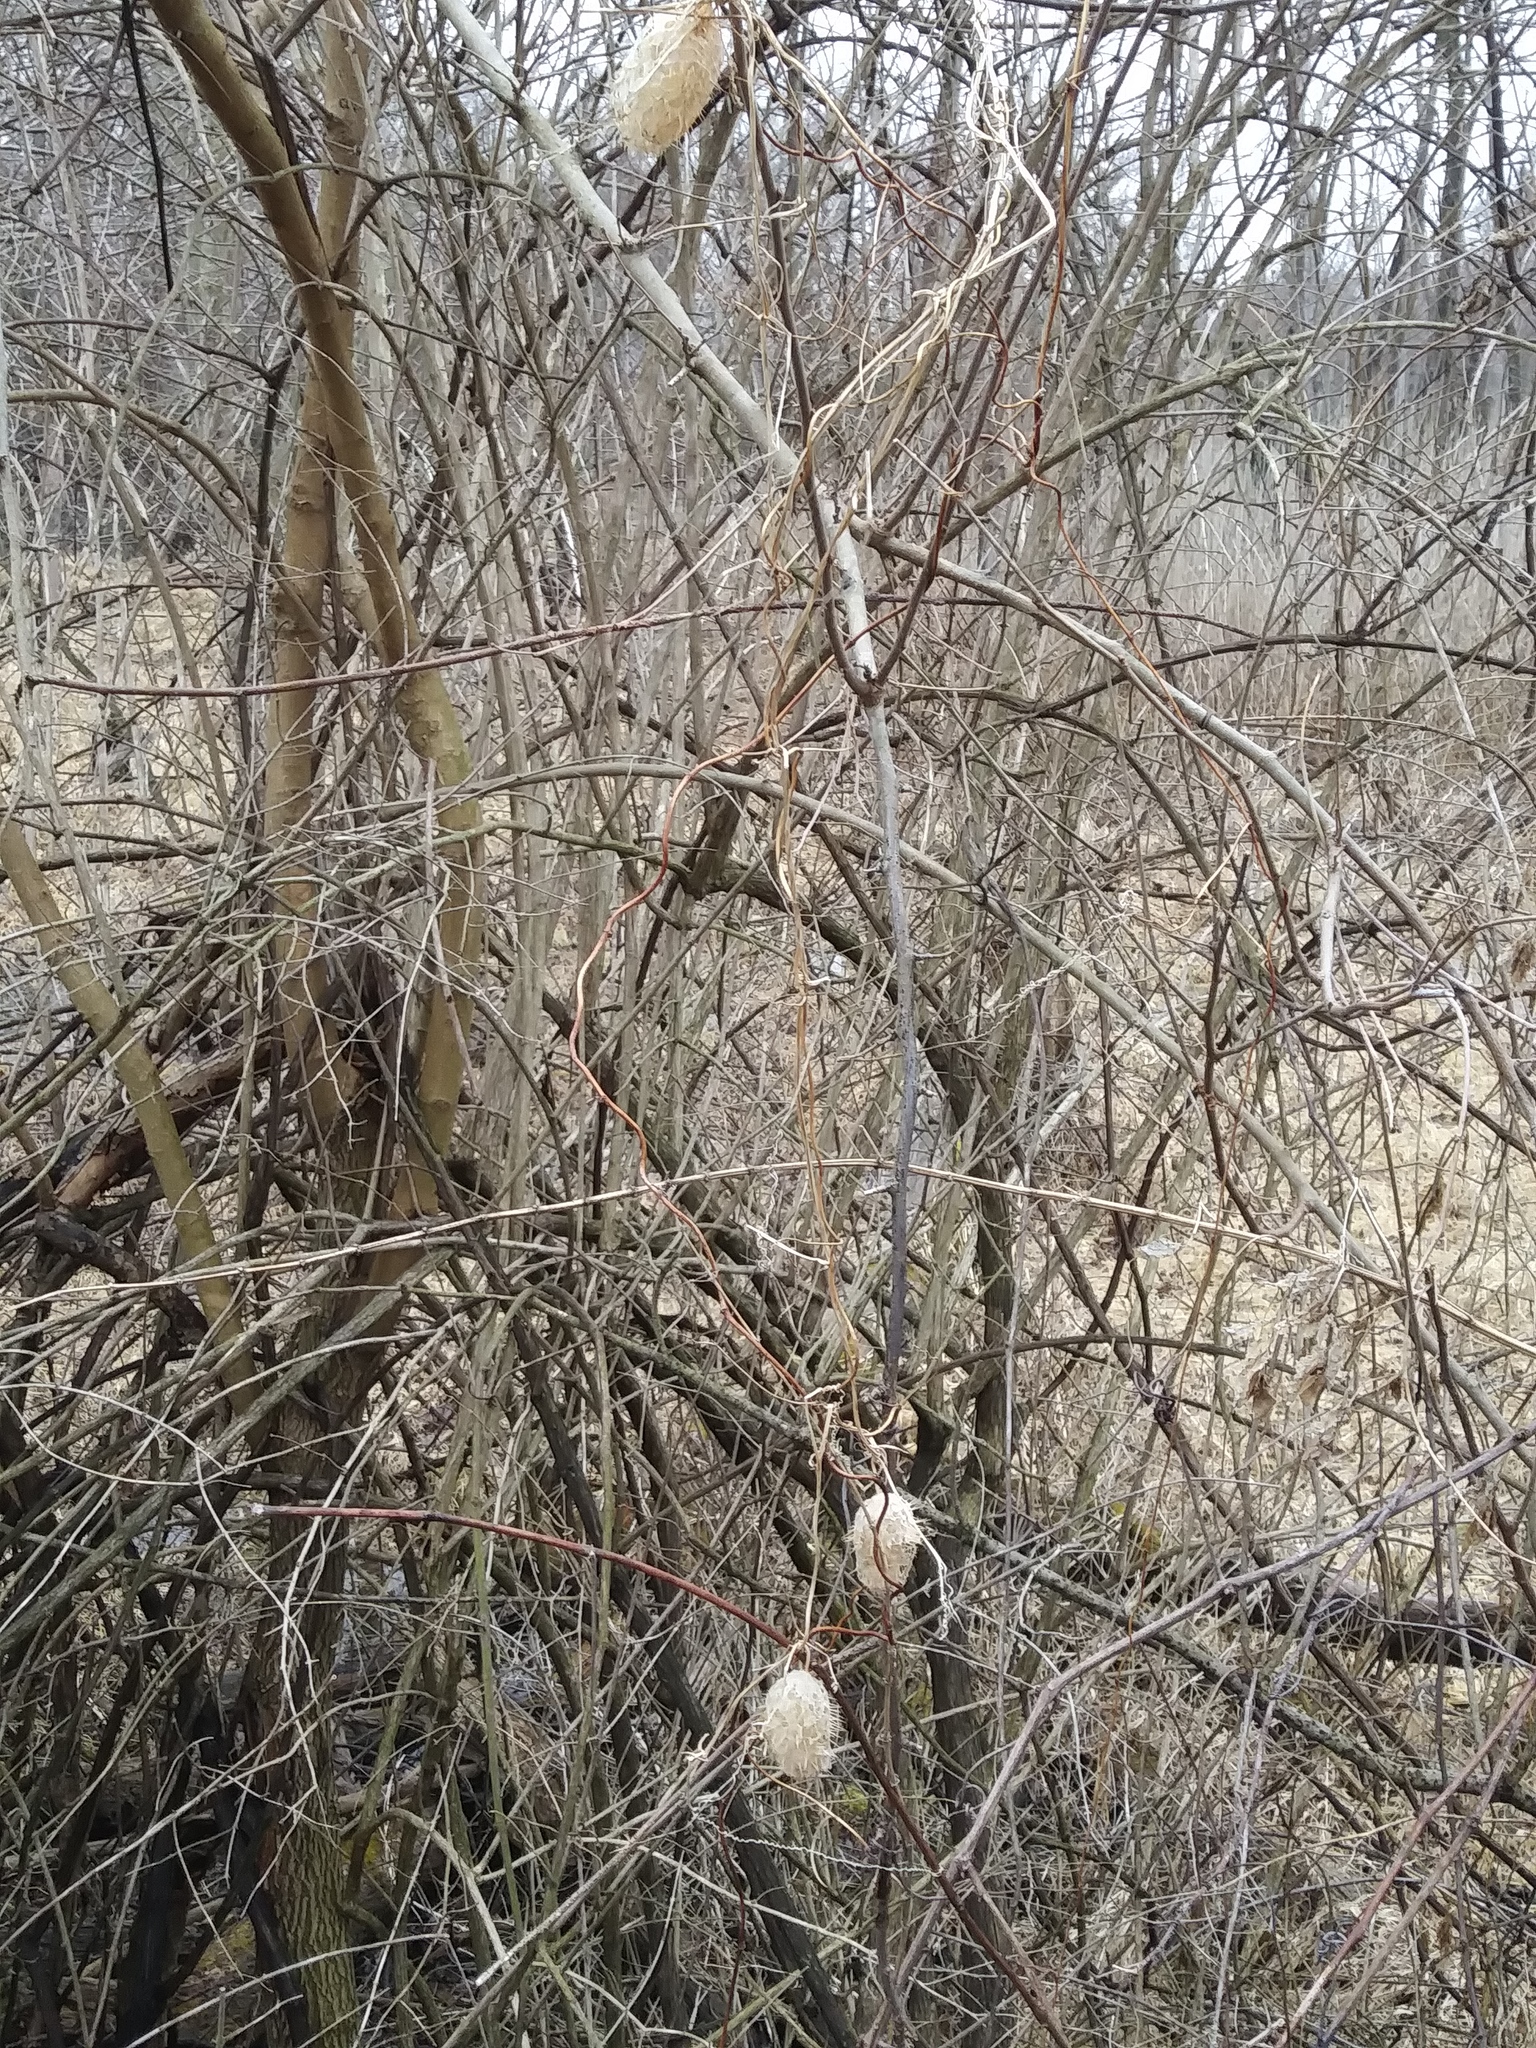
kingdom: Plantae
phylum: Tracheophyta
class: Magnoliopsida
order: Cucurbitales
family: Cucurbitaceae
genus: Echinocystis
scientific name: Echinocystis lobata
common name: Wild cucumber
